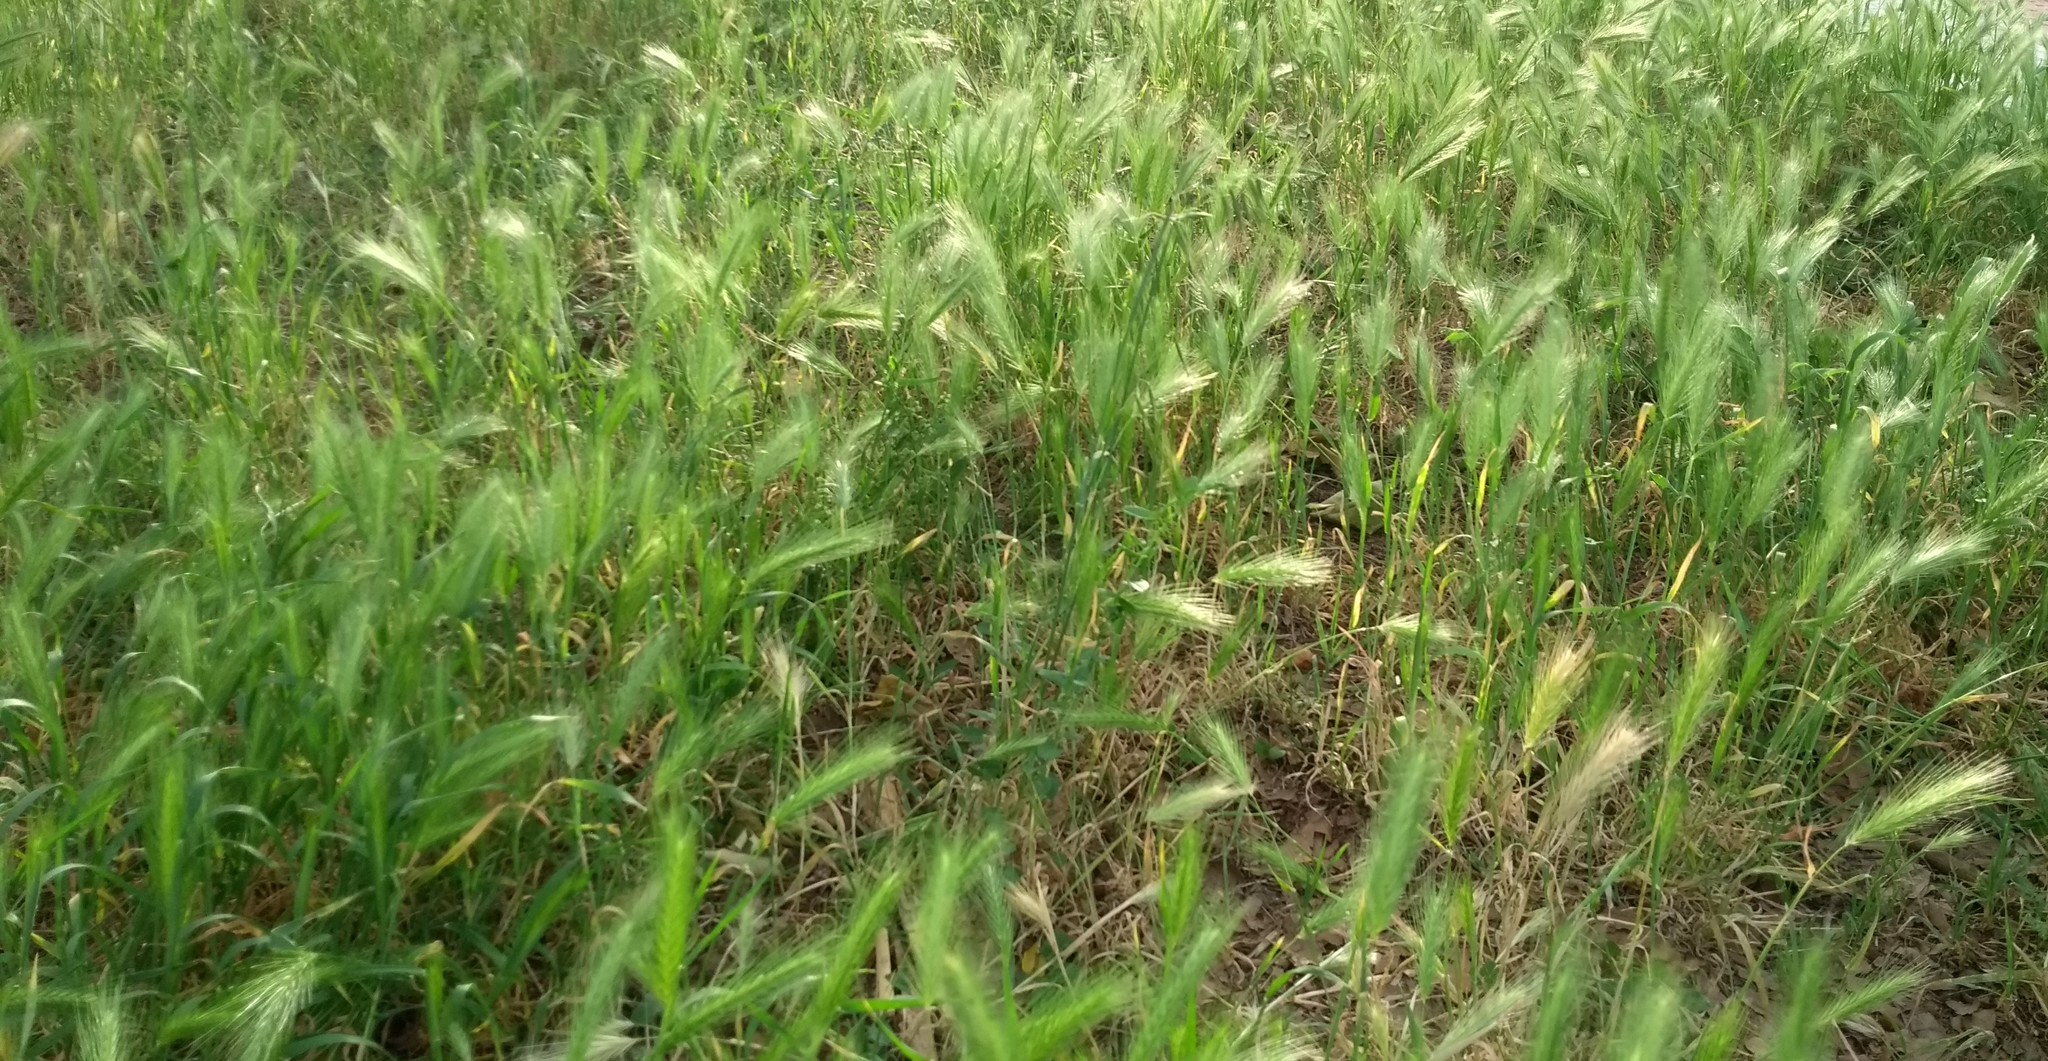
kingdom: Plantae
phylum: Tracheophyta
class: Liliopsida
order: Poales
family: Poaceae
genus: Hordeum
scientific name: Hordeum murinum
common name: Wall barley
